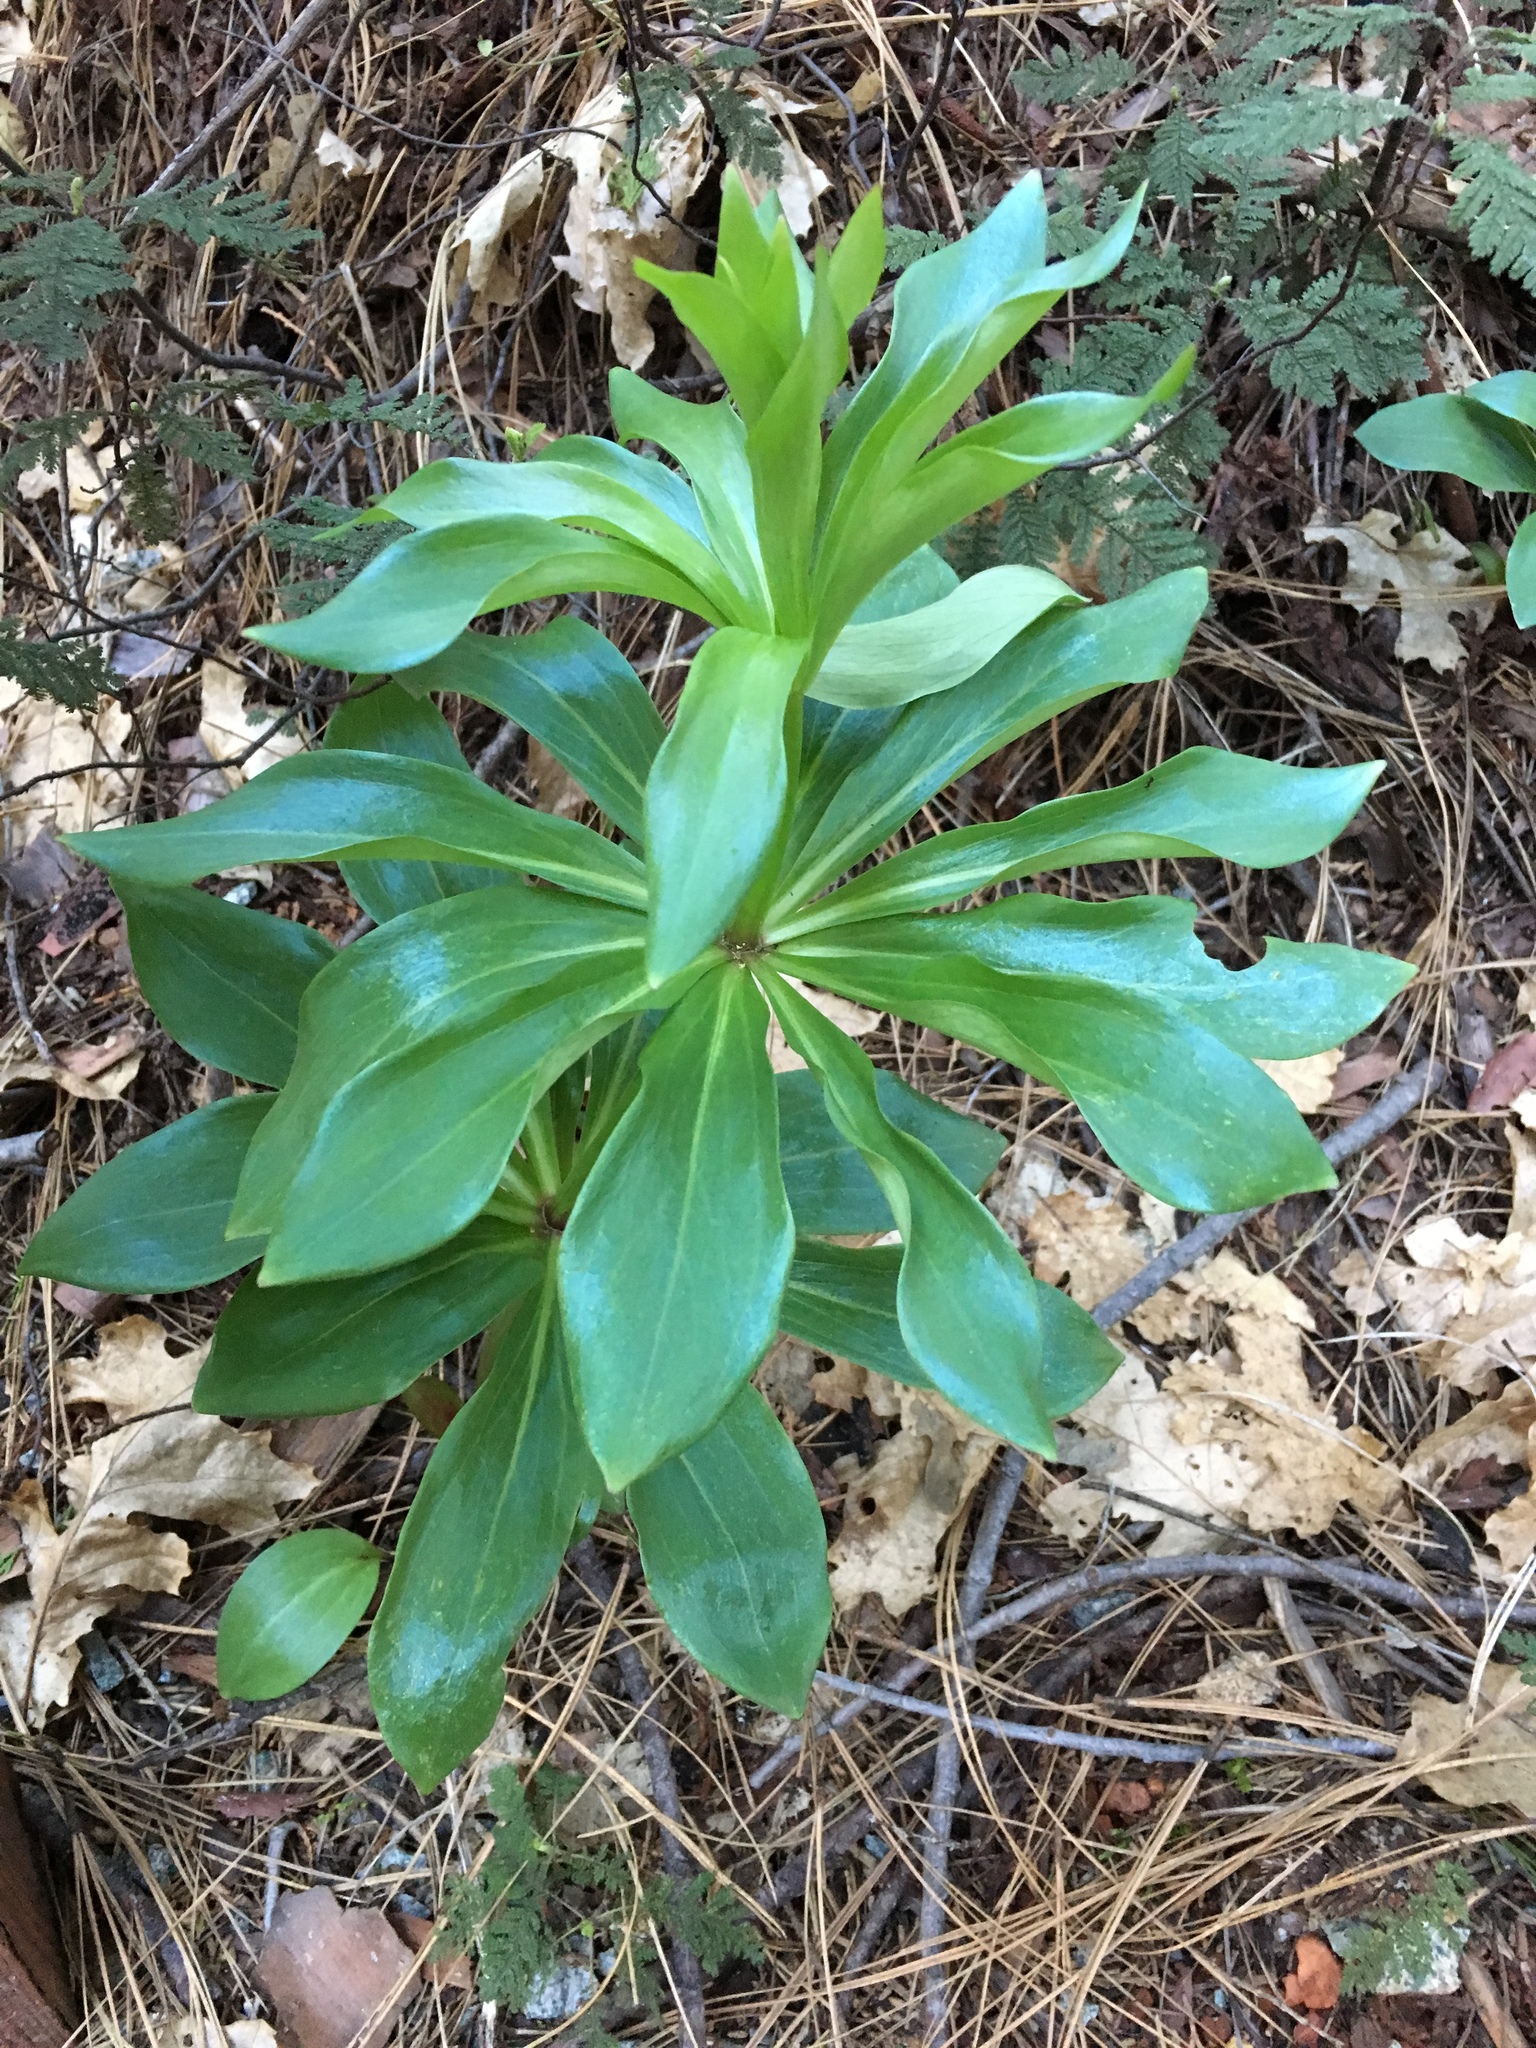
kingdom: Plantae
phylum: Tracheophyta
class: Liliopsida
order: Liliales
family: Liliaceae
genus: Lilium
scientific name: Lilium humboldtii
